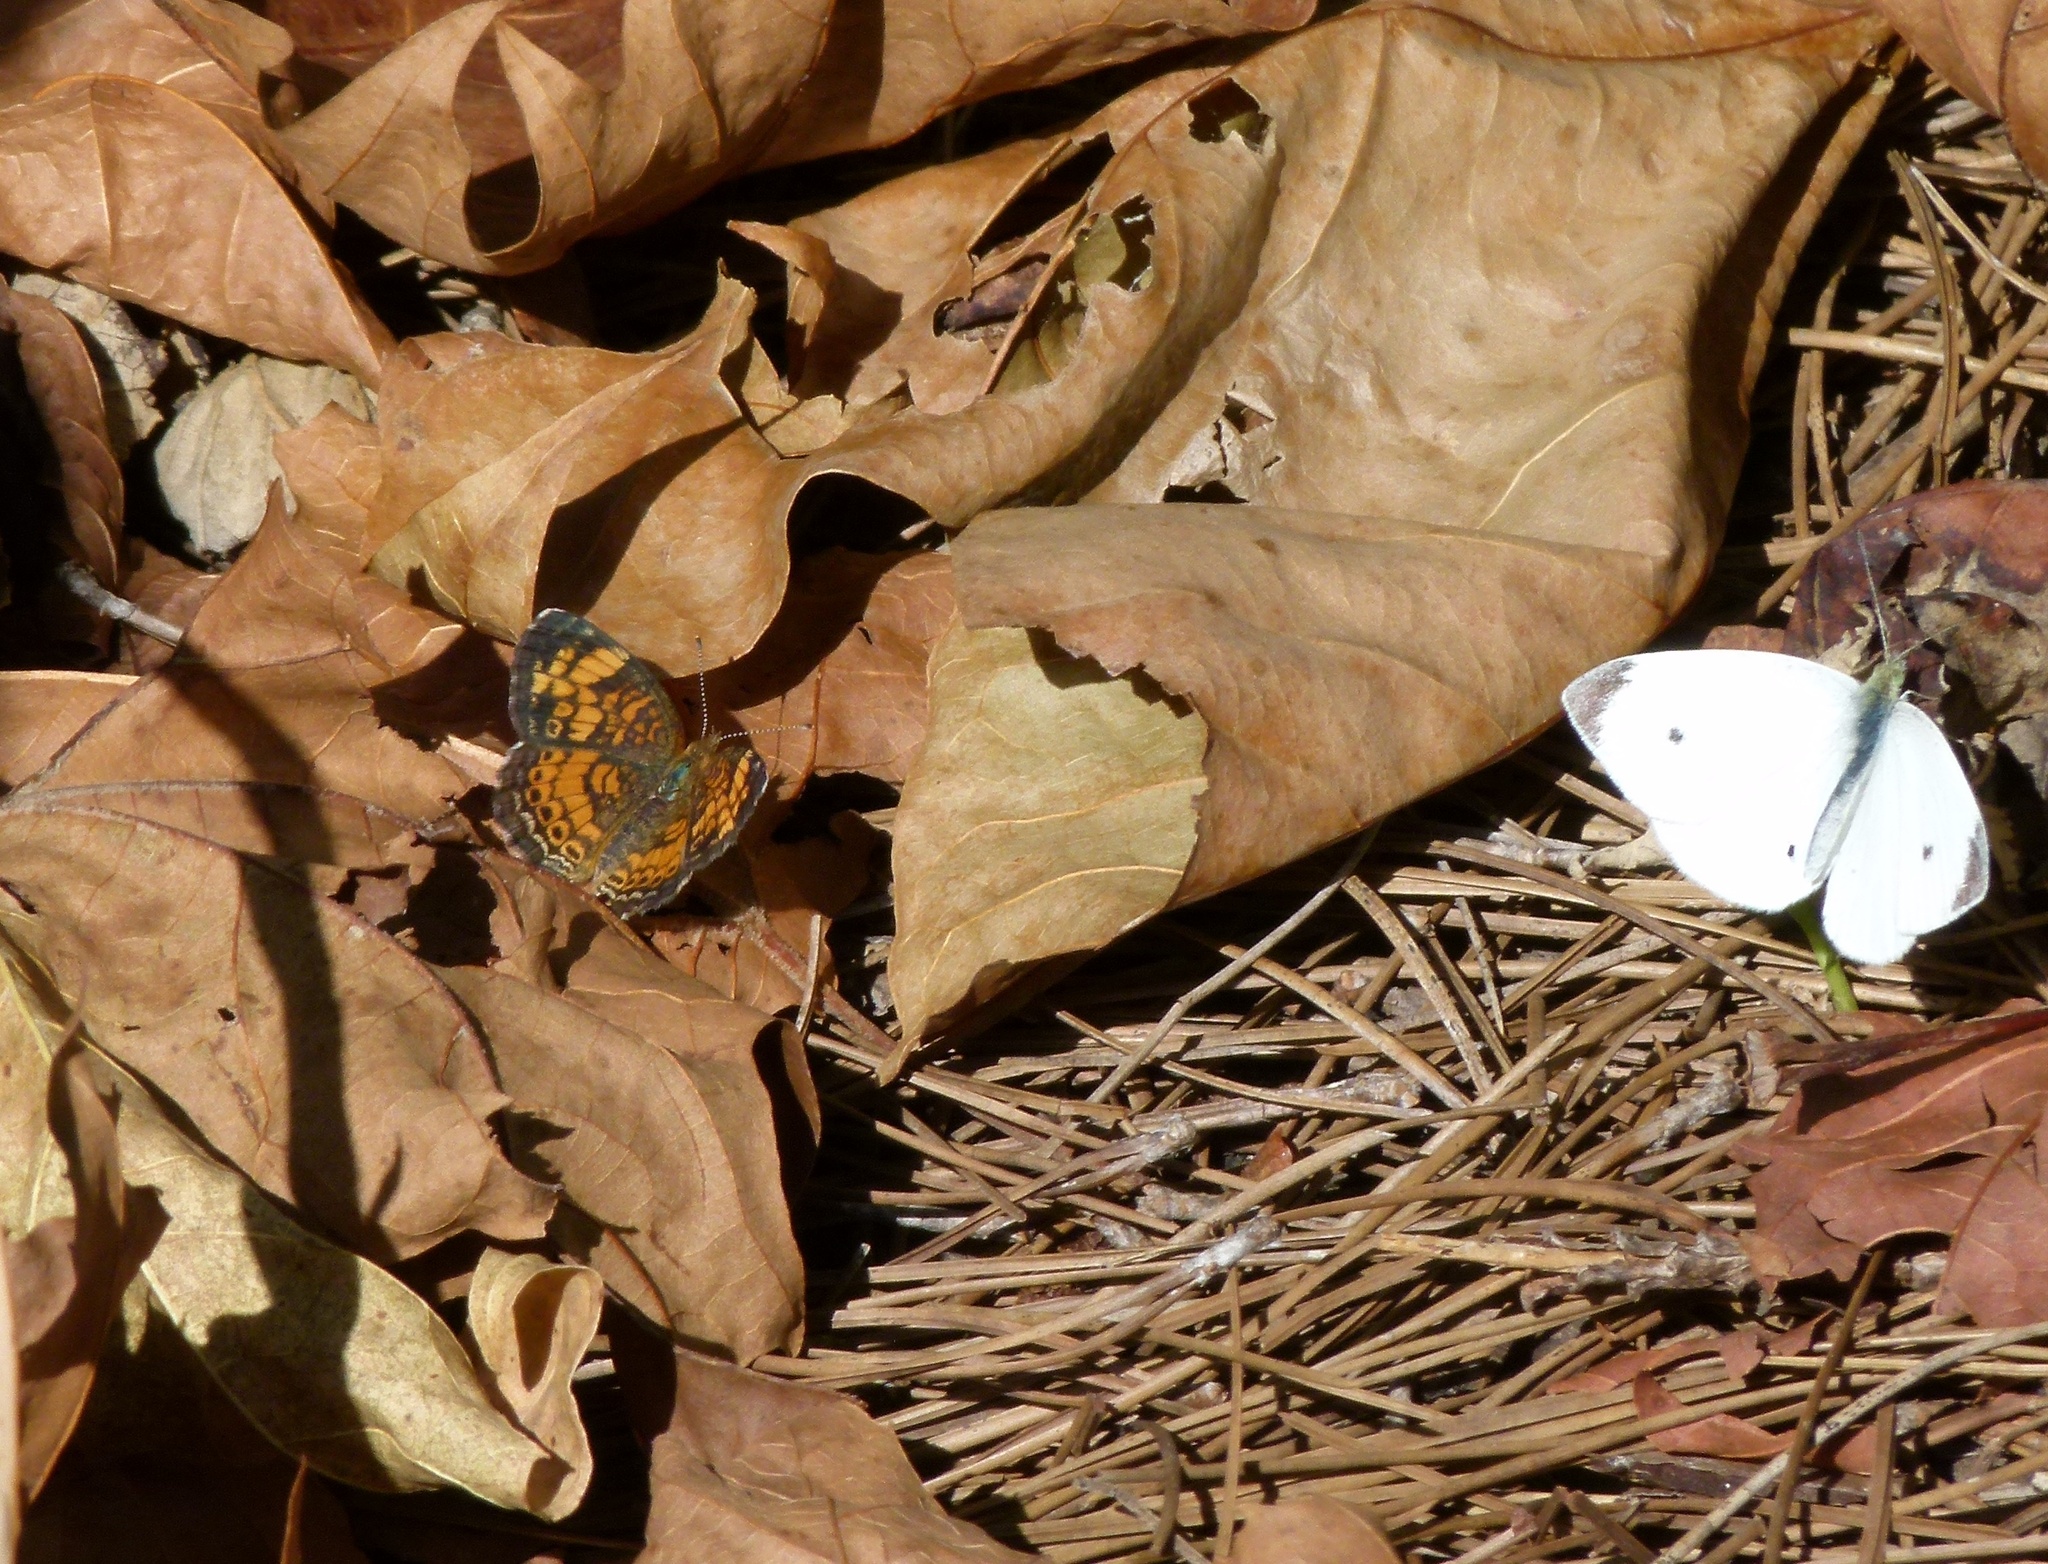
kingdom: Animalia
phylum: Arthropoda
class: Insecta
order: Lepidoptera
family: Nymphalidae
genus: Phyciodes
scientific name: Phyciodes tharos
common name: Pearl crescent
